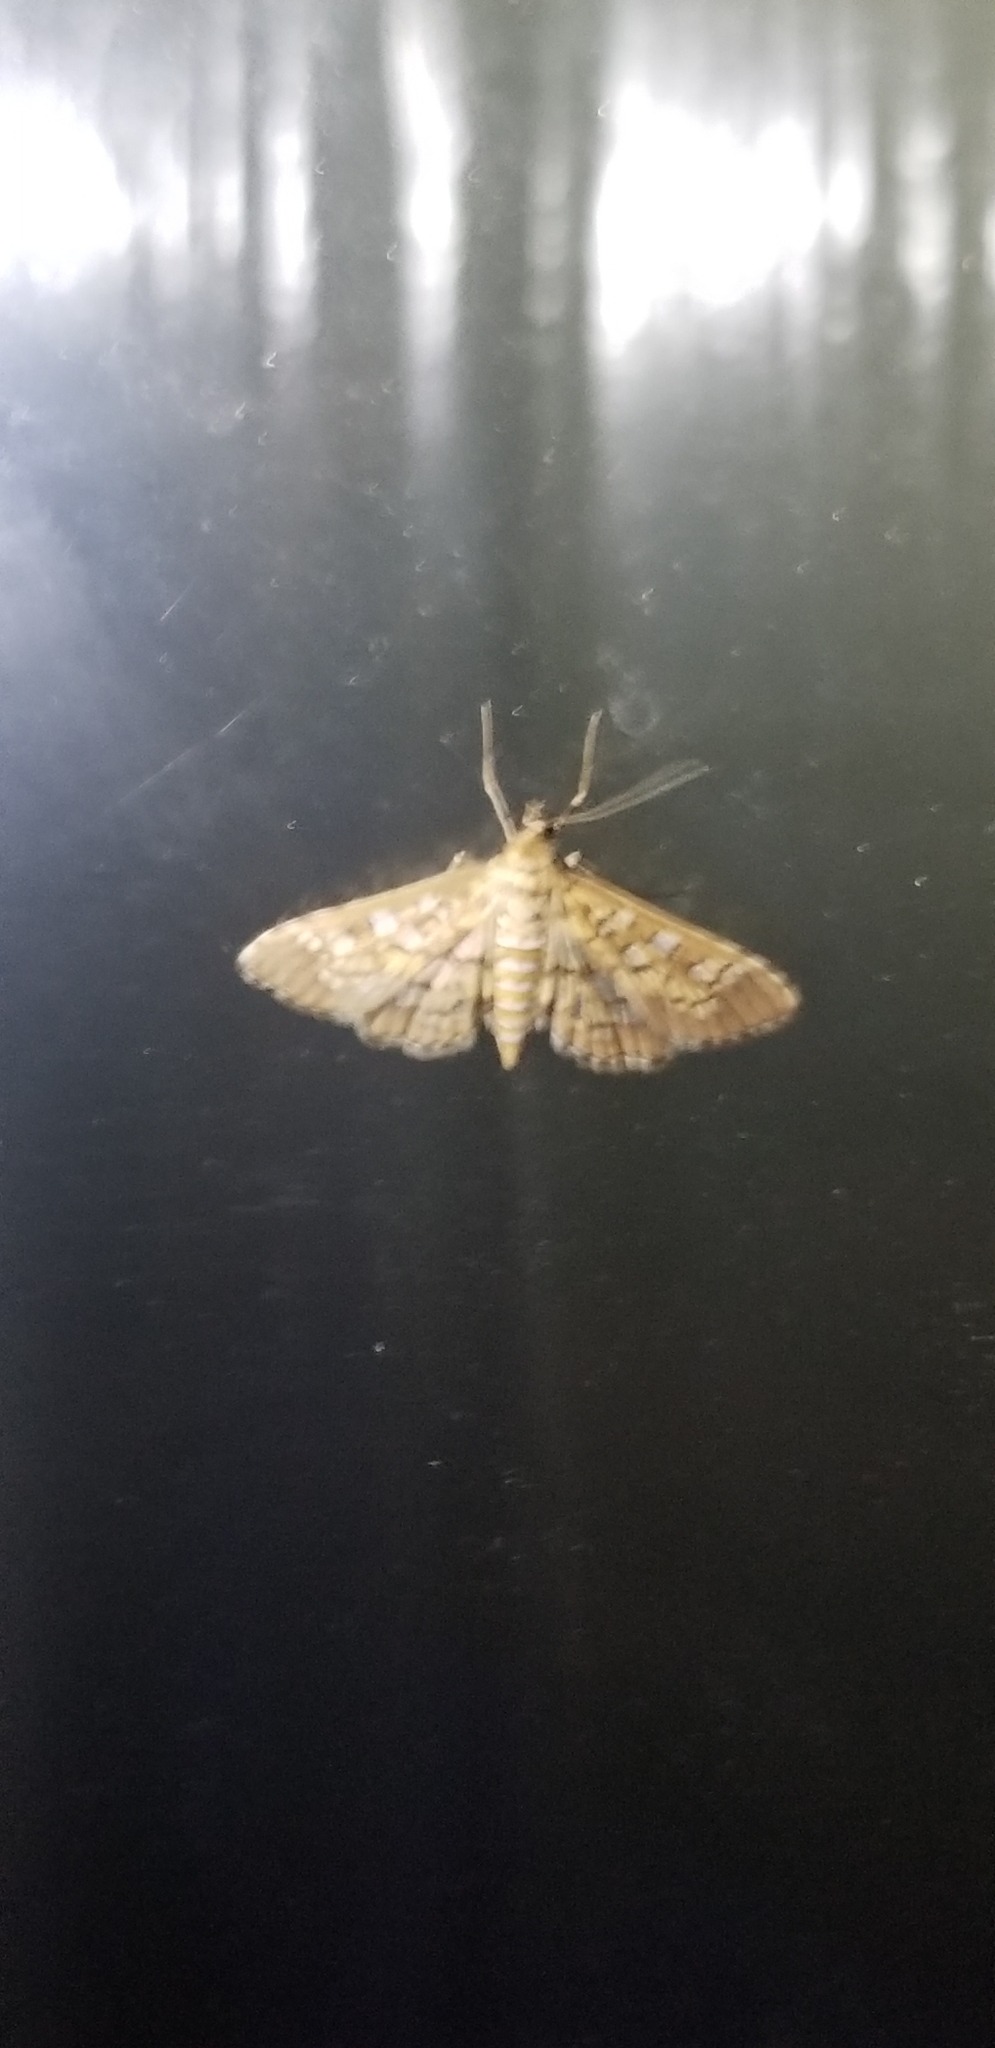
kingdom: Animalia
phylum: Arthropoda
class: Insecta
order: Lepidoptera
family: Crambidae
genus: Samea
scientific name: Samea ecclesialis
